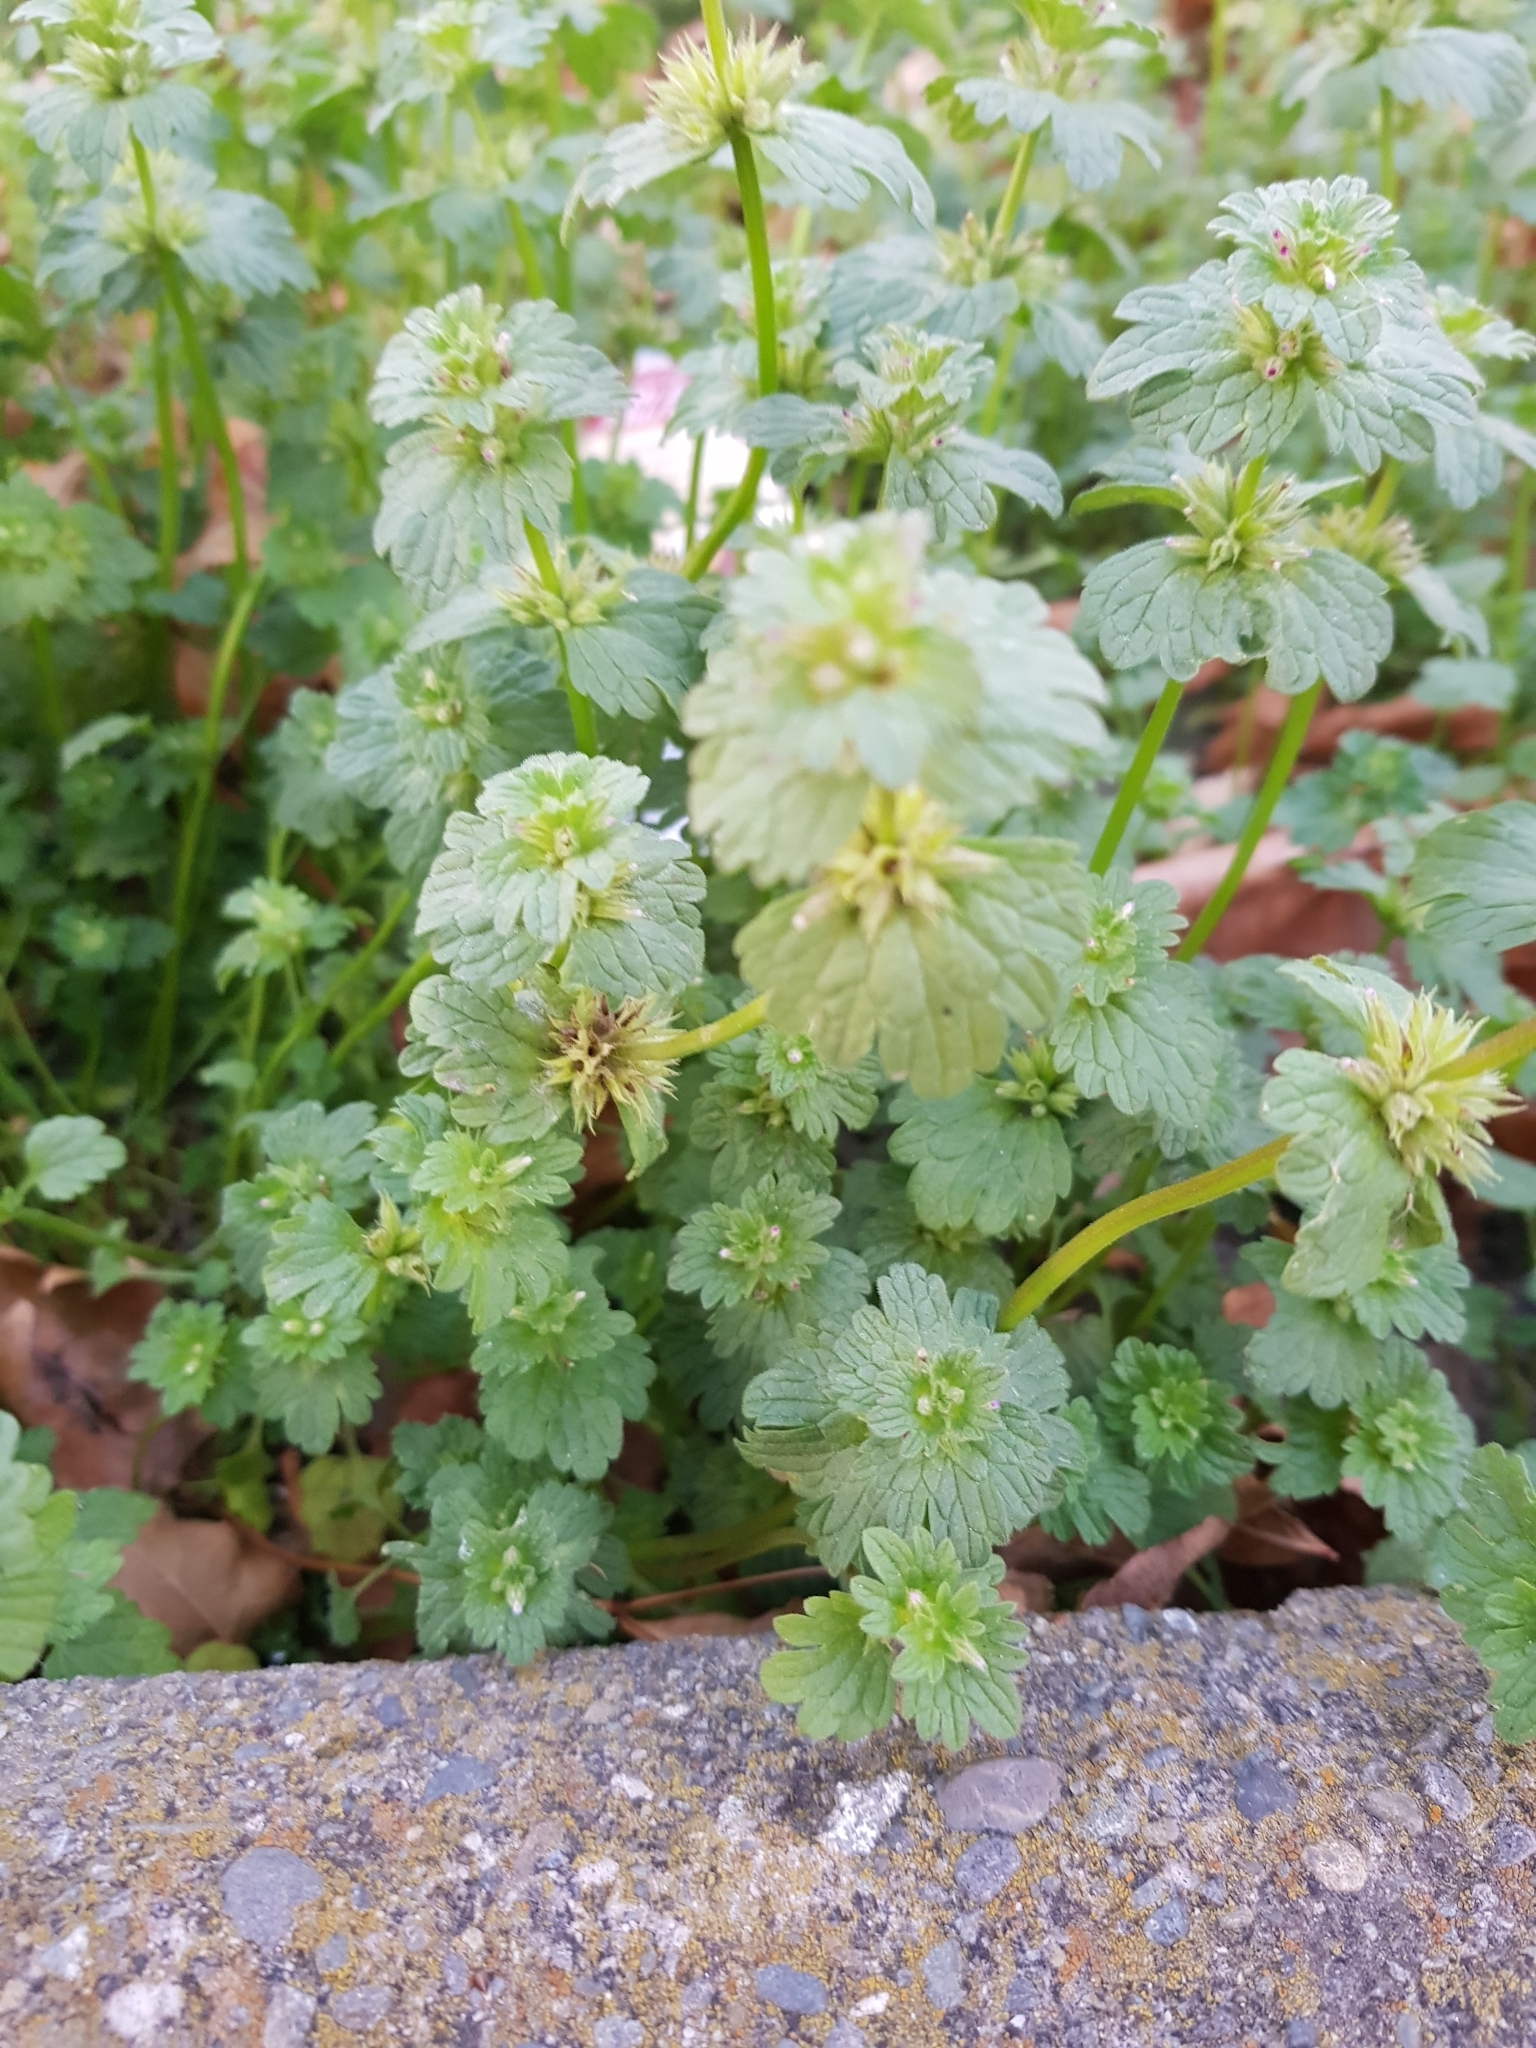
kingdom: Plantae
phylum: Tracheophyta
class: Magnoliopsida
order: Lamiales
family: Lamiaceae
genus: Lamium
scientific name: Lamium amplexicaule
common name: Henbit dead-nettle
